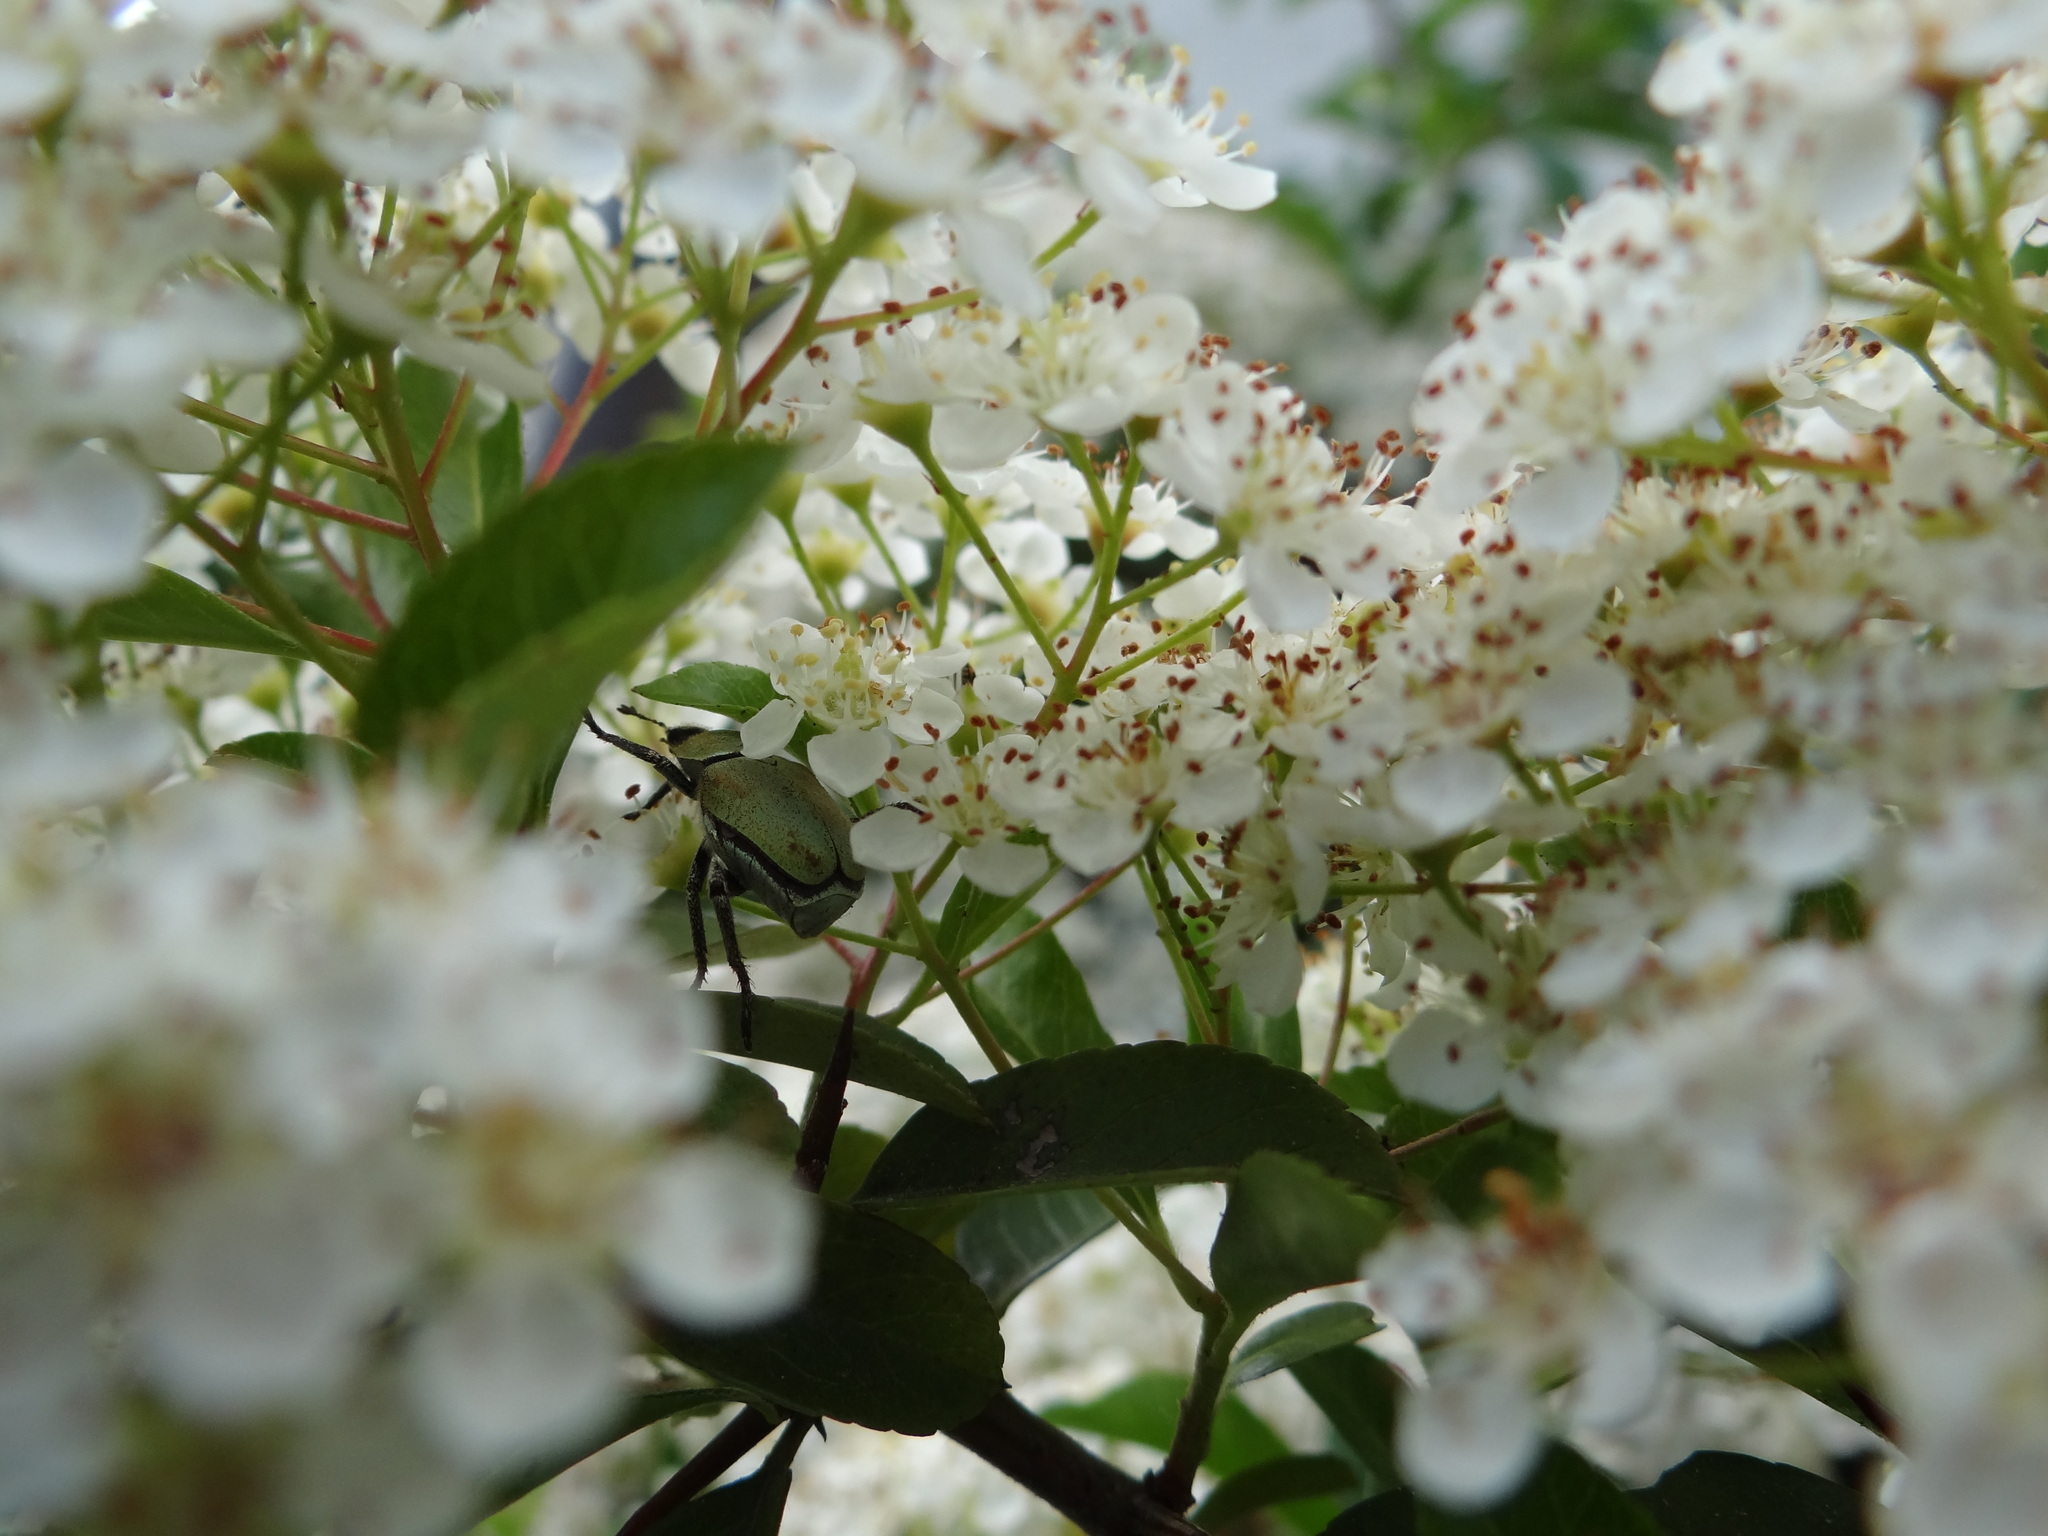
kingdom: Animalia
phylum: Arthropoda
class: Insecta
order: Coleoptera
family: Scarabaeidae
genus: Hoplia
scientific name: Hoplia argentea
